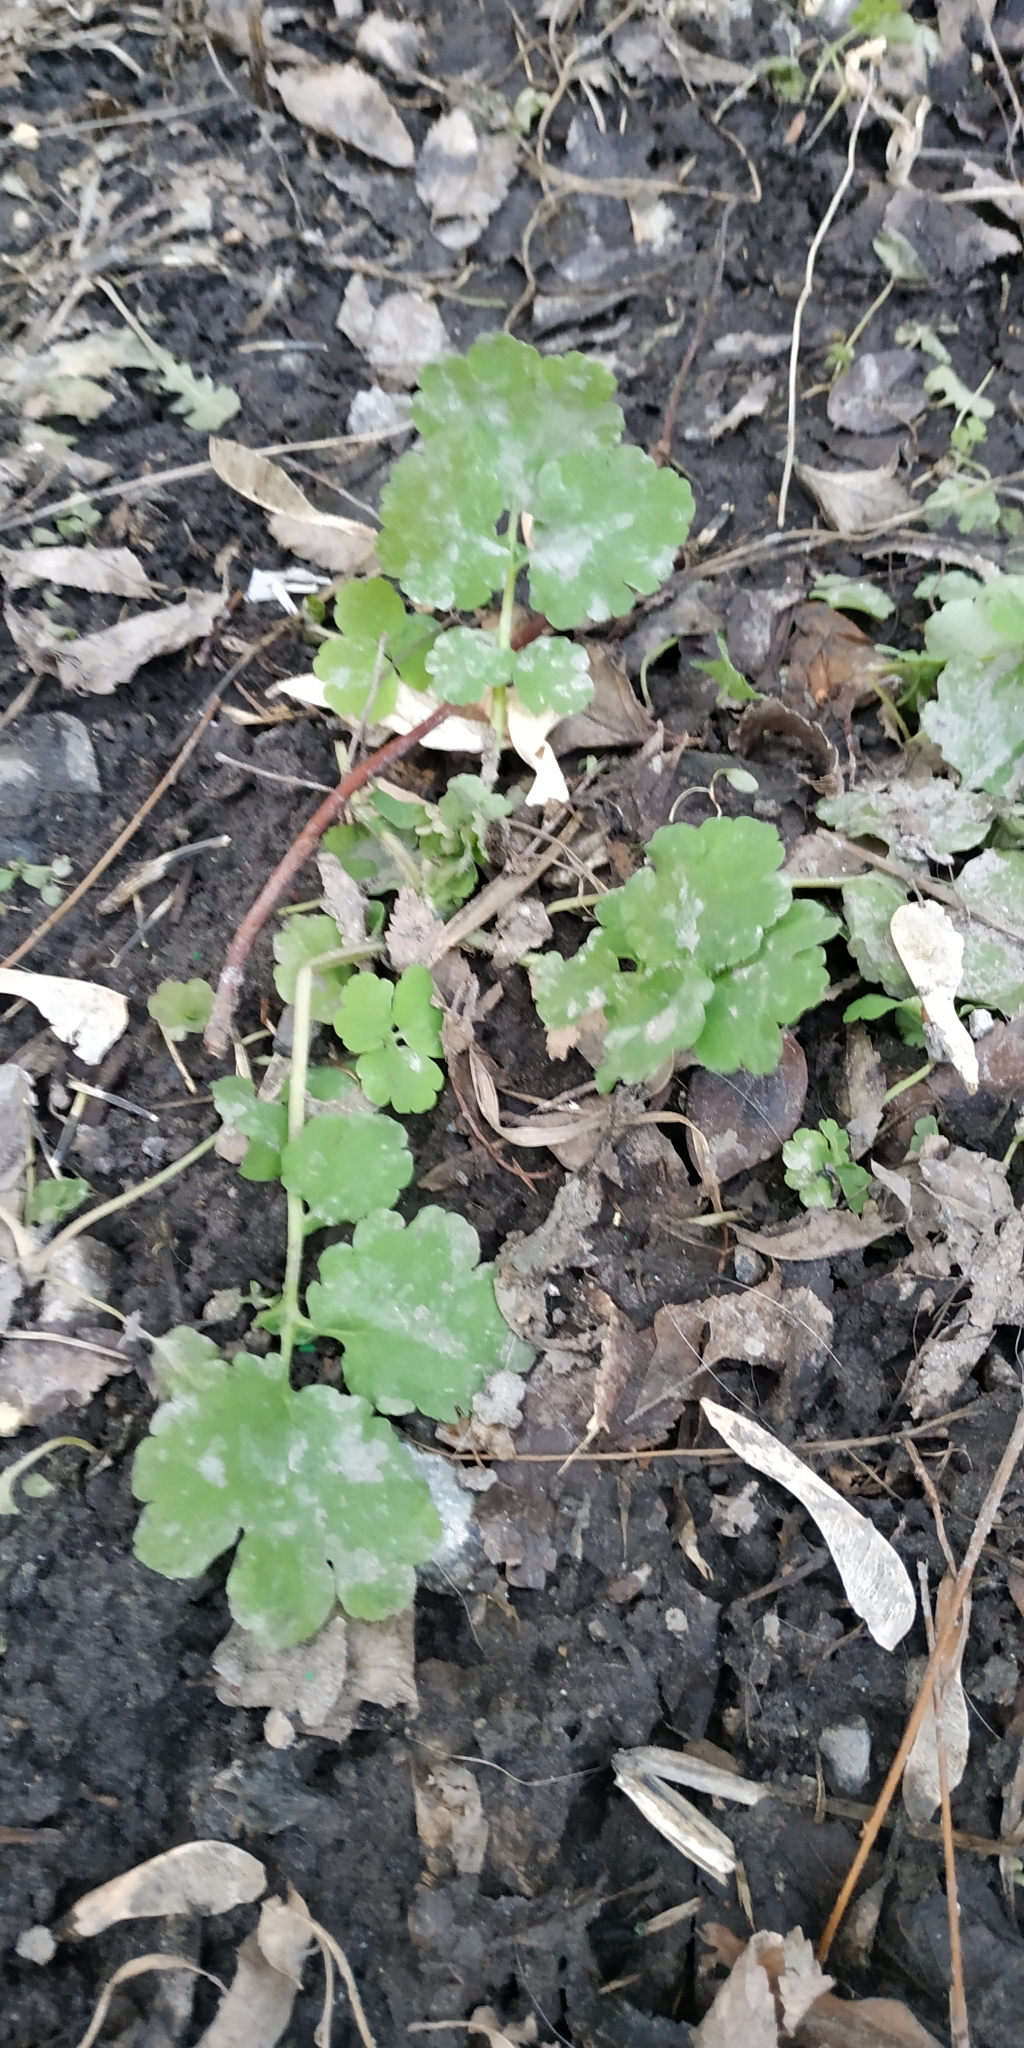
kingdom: Plantae
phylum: Tracheophyta
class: Magnoliopsida
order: Ranunculales
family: Papaveraceae
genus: Chelidonium
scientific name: Chelidonium majus
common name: Greater celandine
